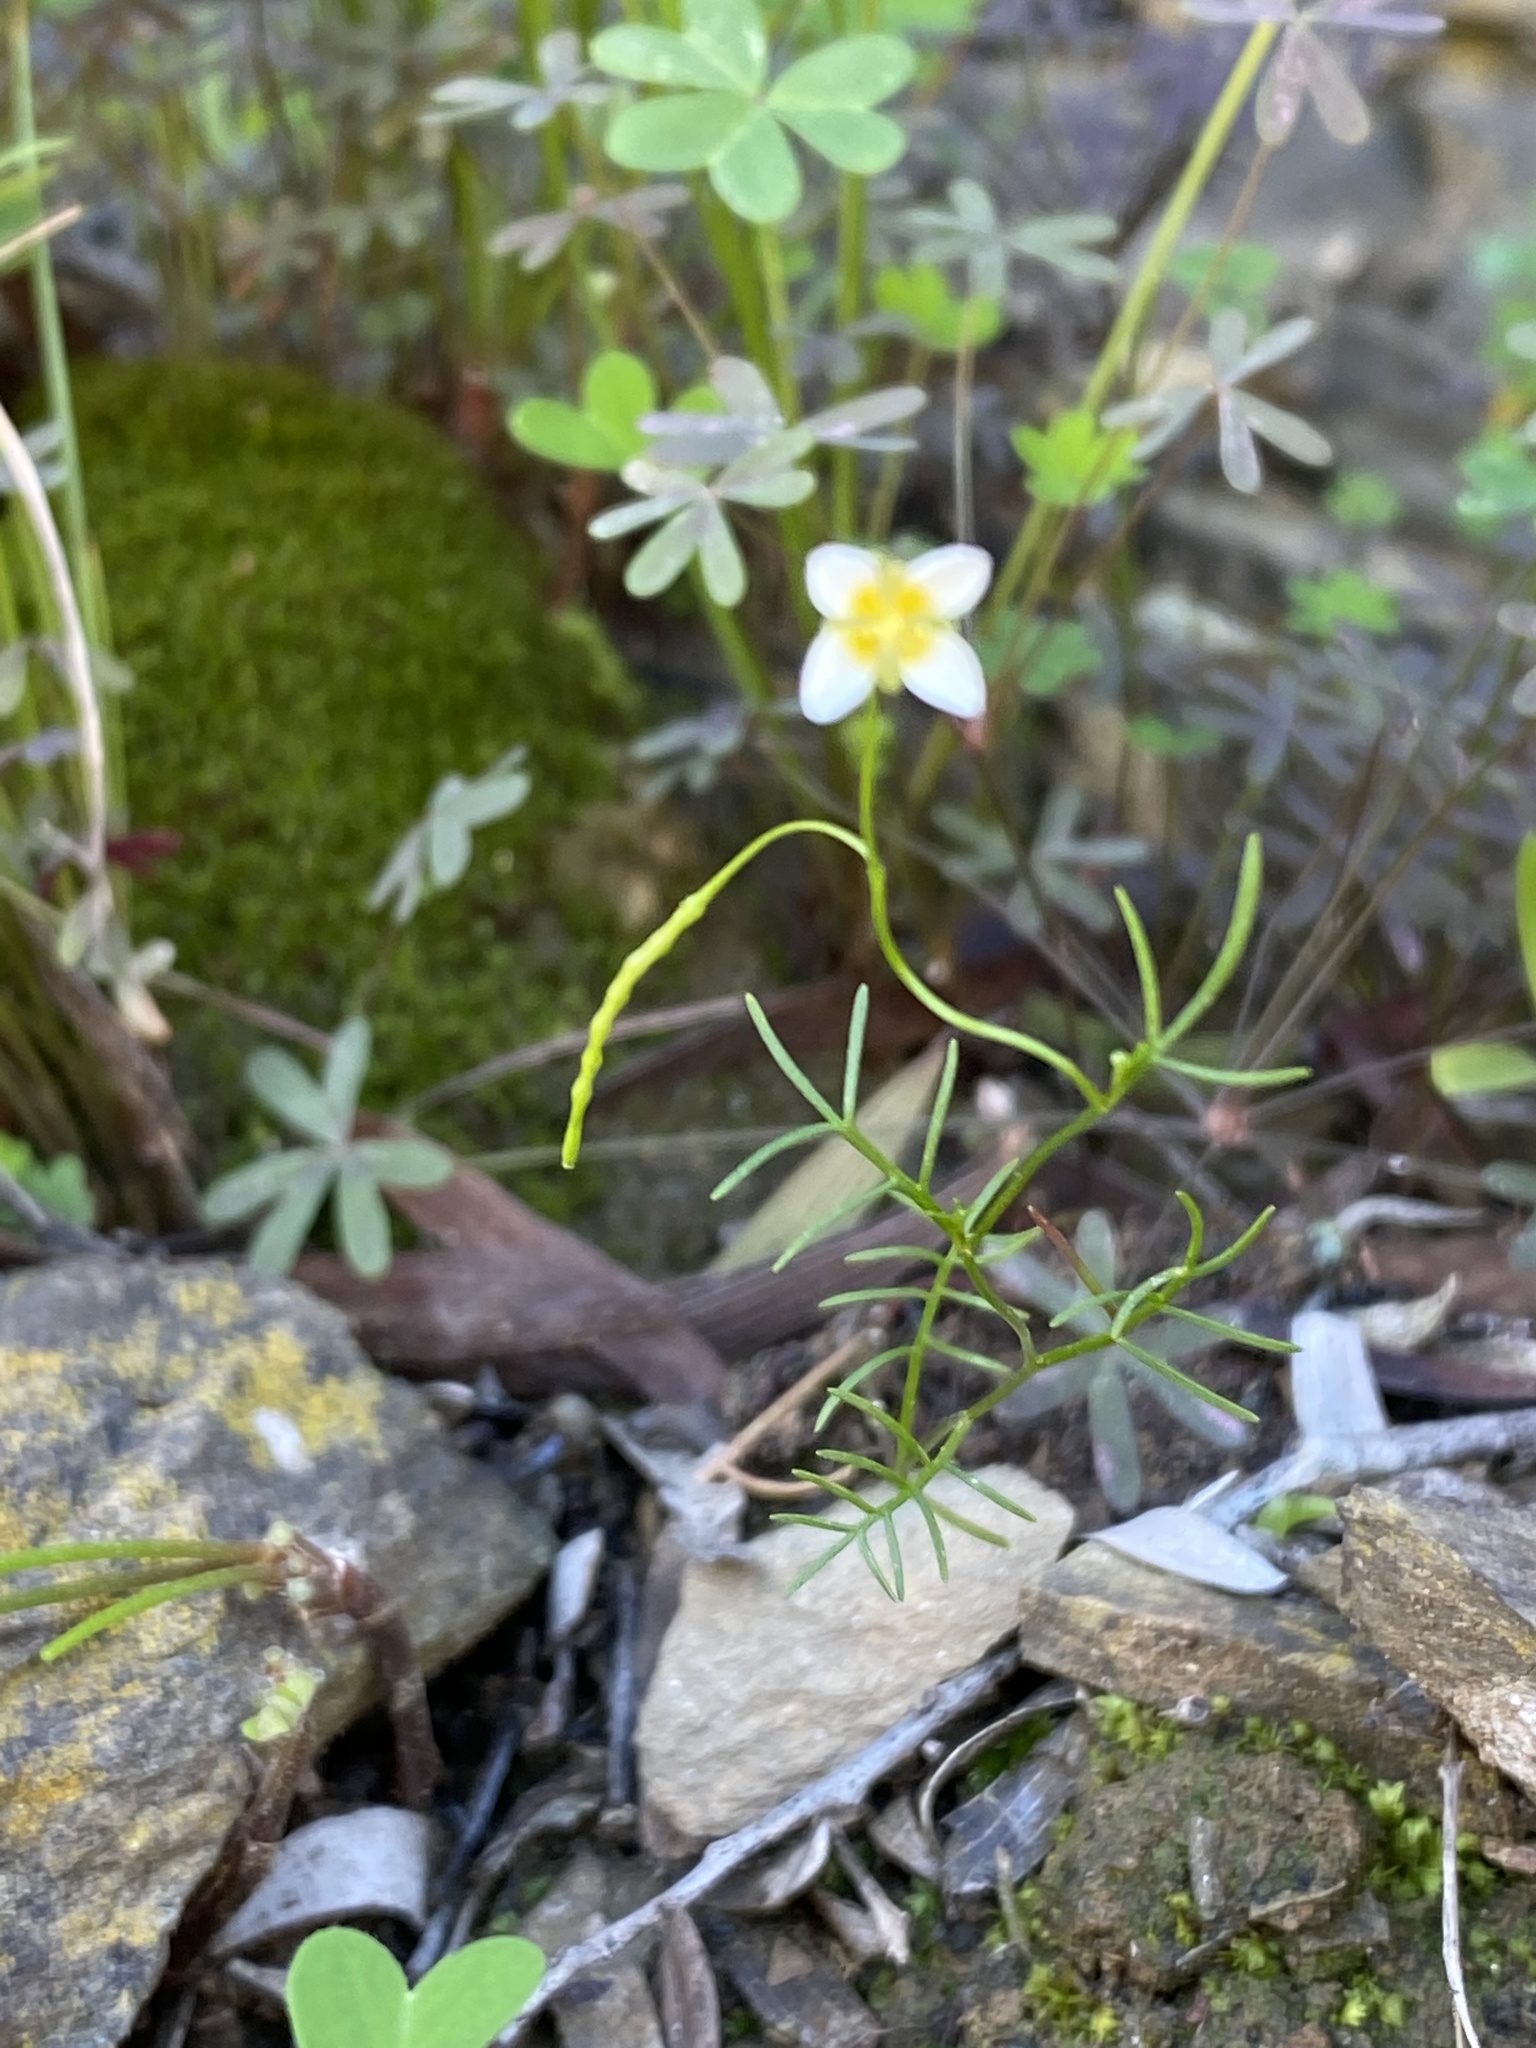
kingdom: Plantae
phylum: Tracheophyta
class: Magnoliopsida
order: Brassicales
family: Brassicaceae
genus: Heliophila
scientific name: Heliophila pendula
